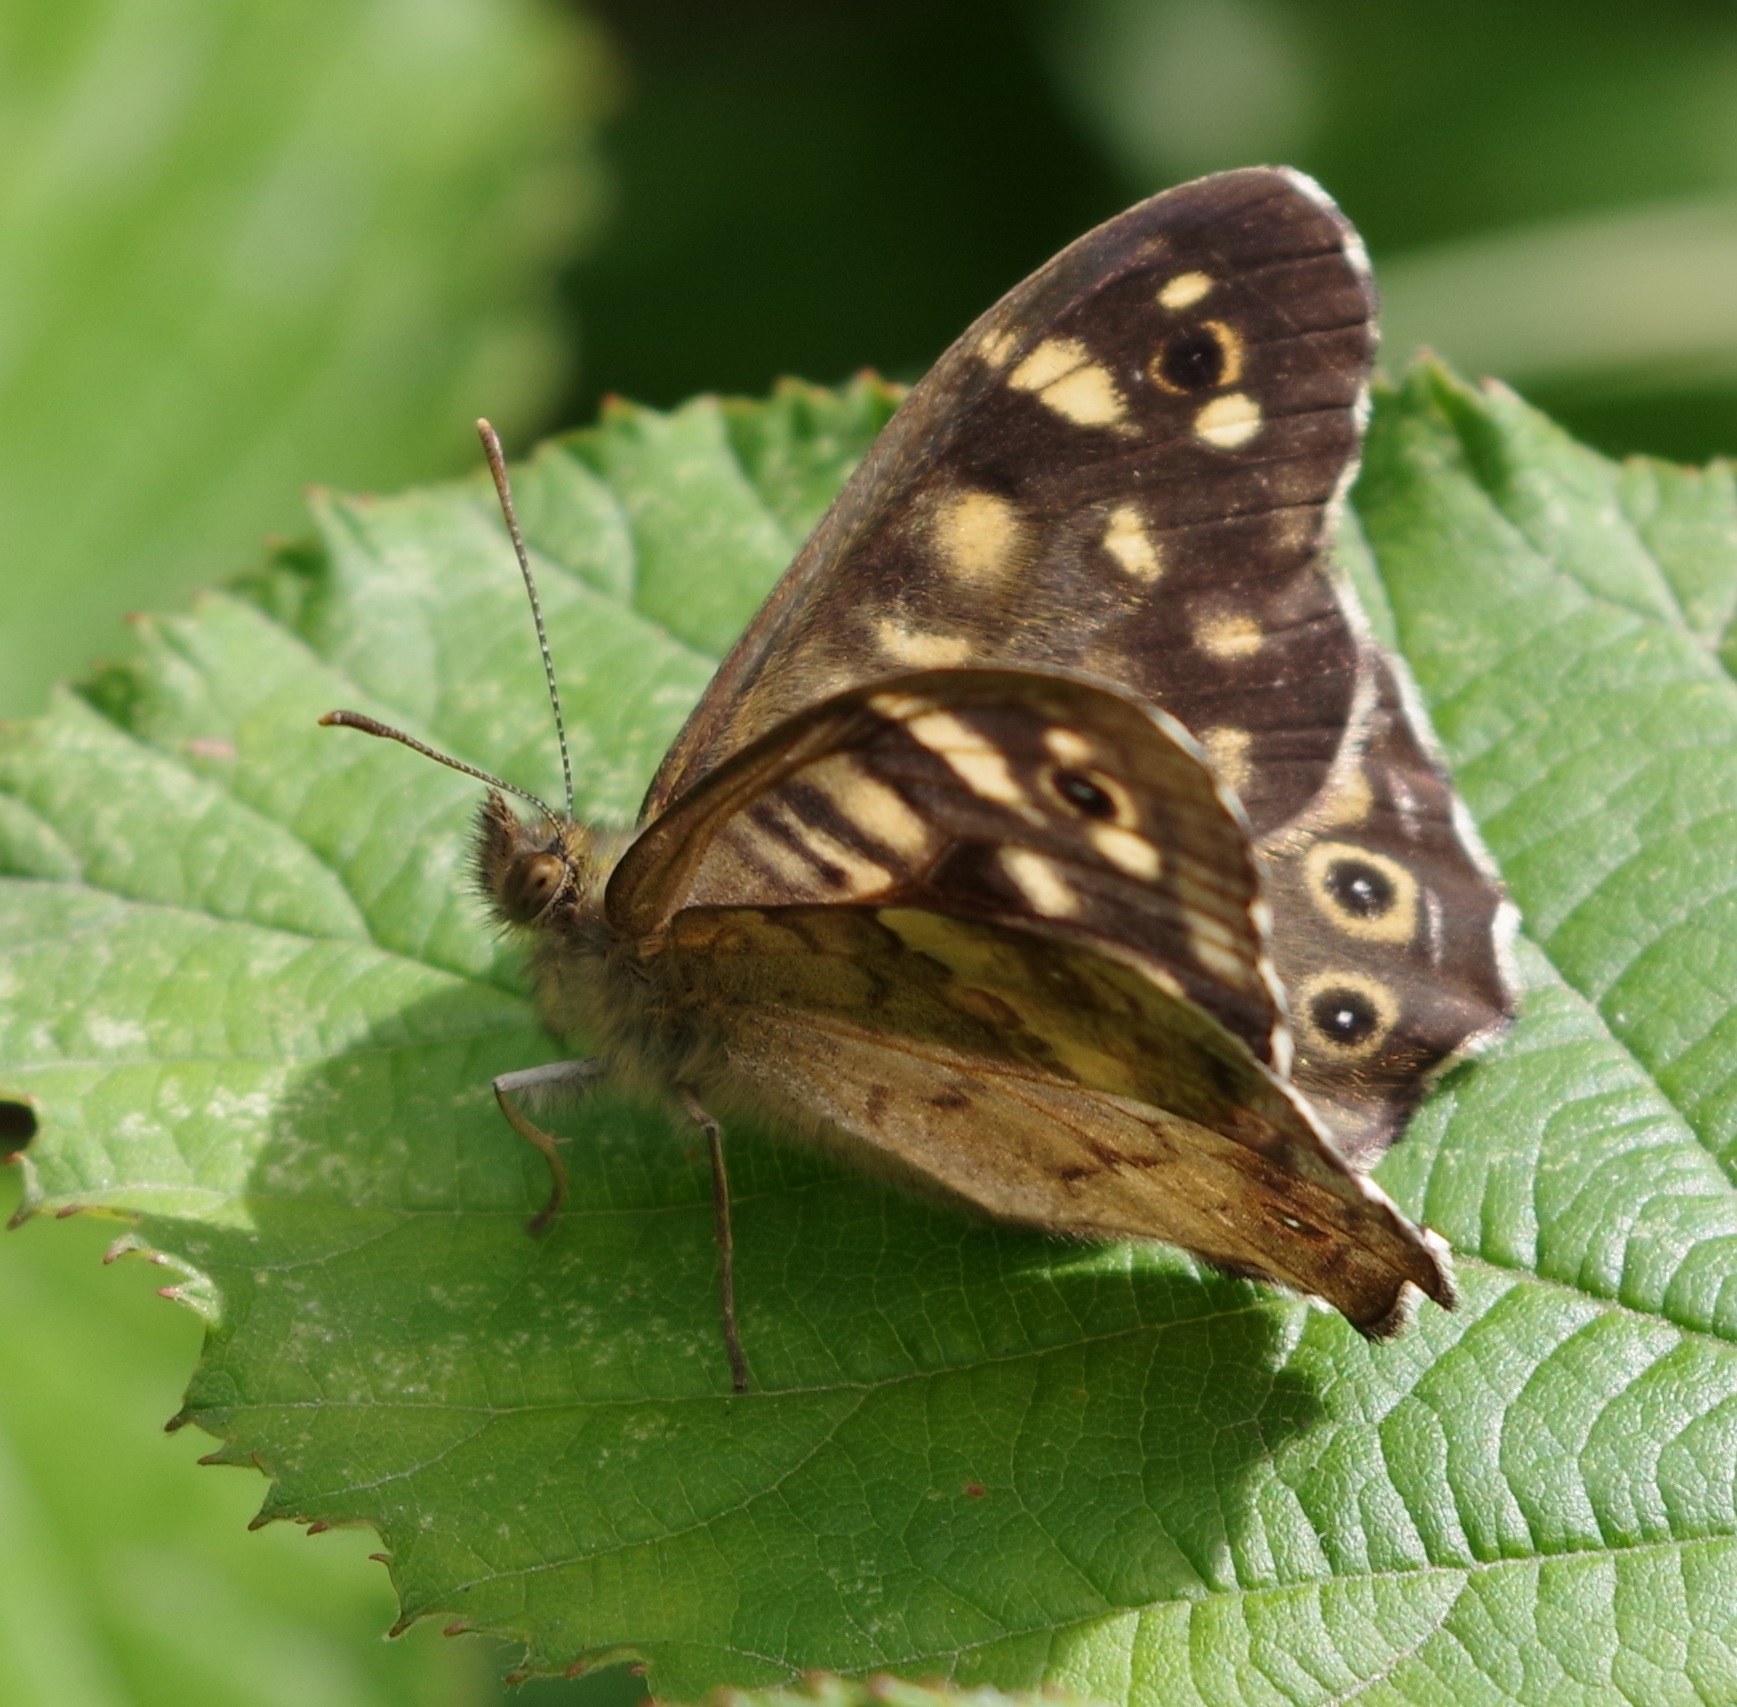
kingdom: Animalia
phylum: Arthropoda
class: Insecta
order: Lepidoptera
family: Nymphalidae
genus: Pararge
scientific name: Pararge aegeria
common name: Speckled wood
